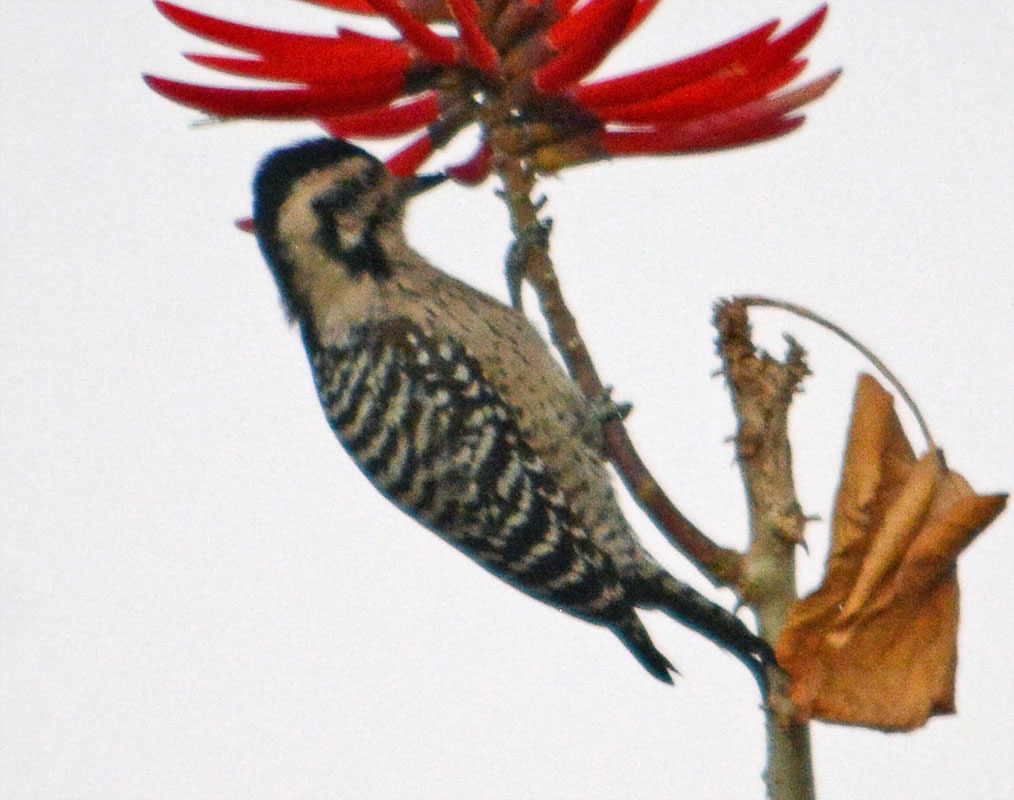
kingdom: Animalia
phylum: Chordata
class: Aves
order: Piciformes
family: Picidae
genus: Dryobates
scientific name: Dryobates scalaris
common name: Ladder-backed woodpecker
